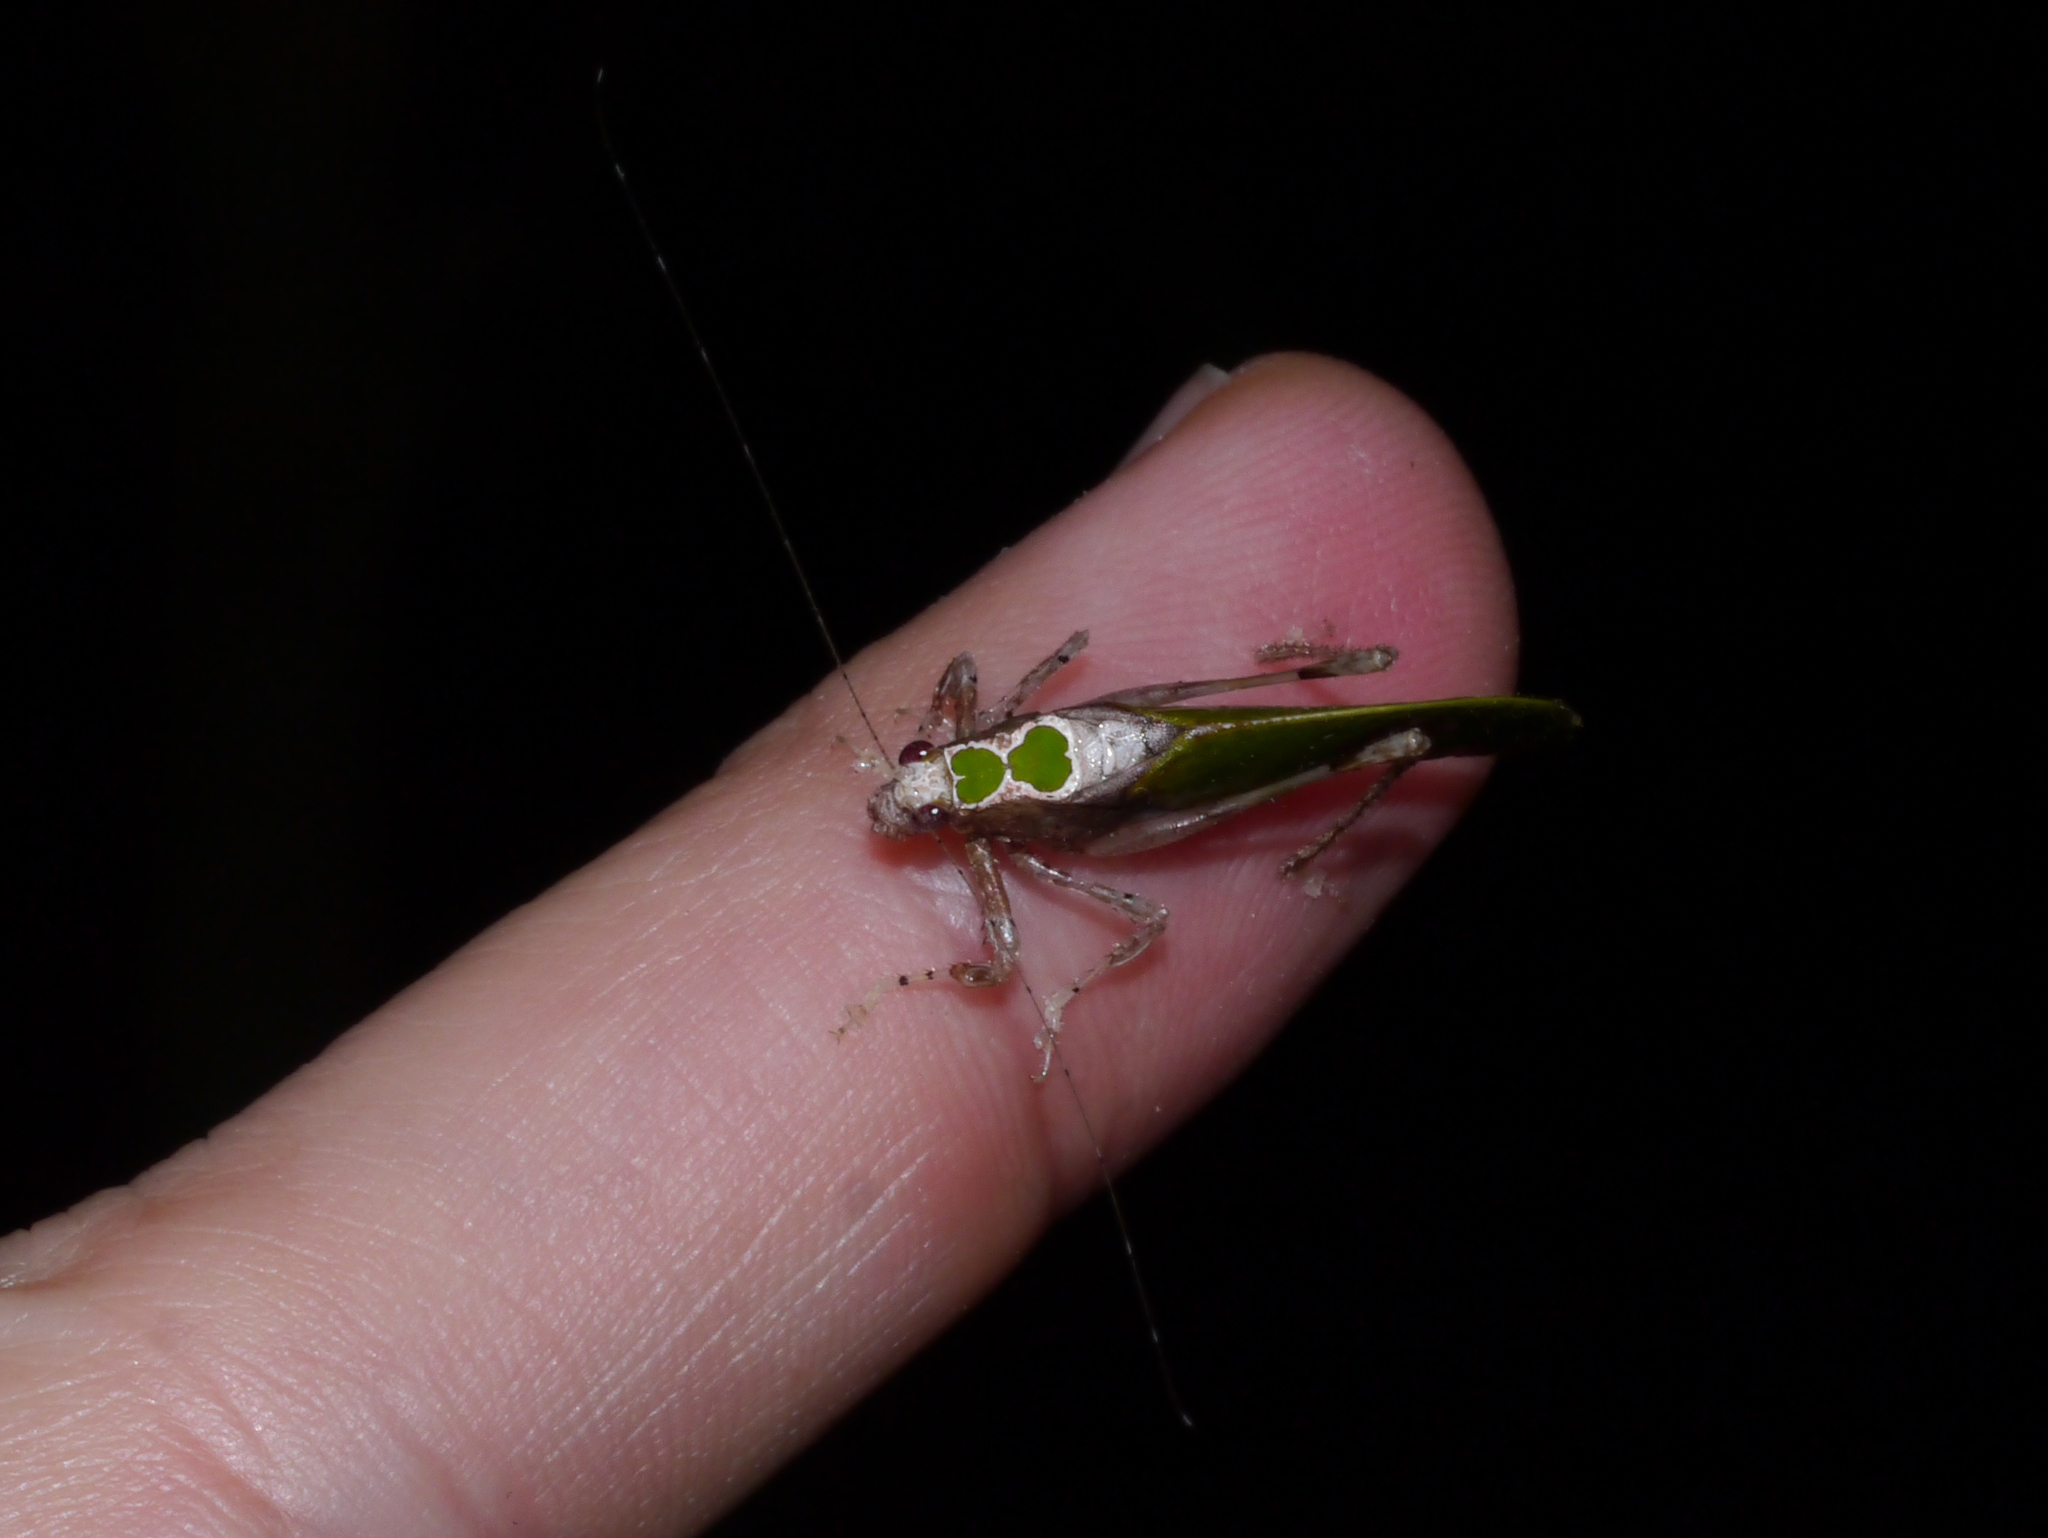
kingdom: Animalia
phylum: Arthropoda
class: Insecta
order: Orthoptera
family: Tettigoniidae
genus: Pycnopalpa
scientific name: Pycnopalpa bicordata
